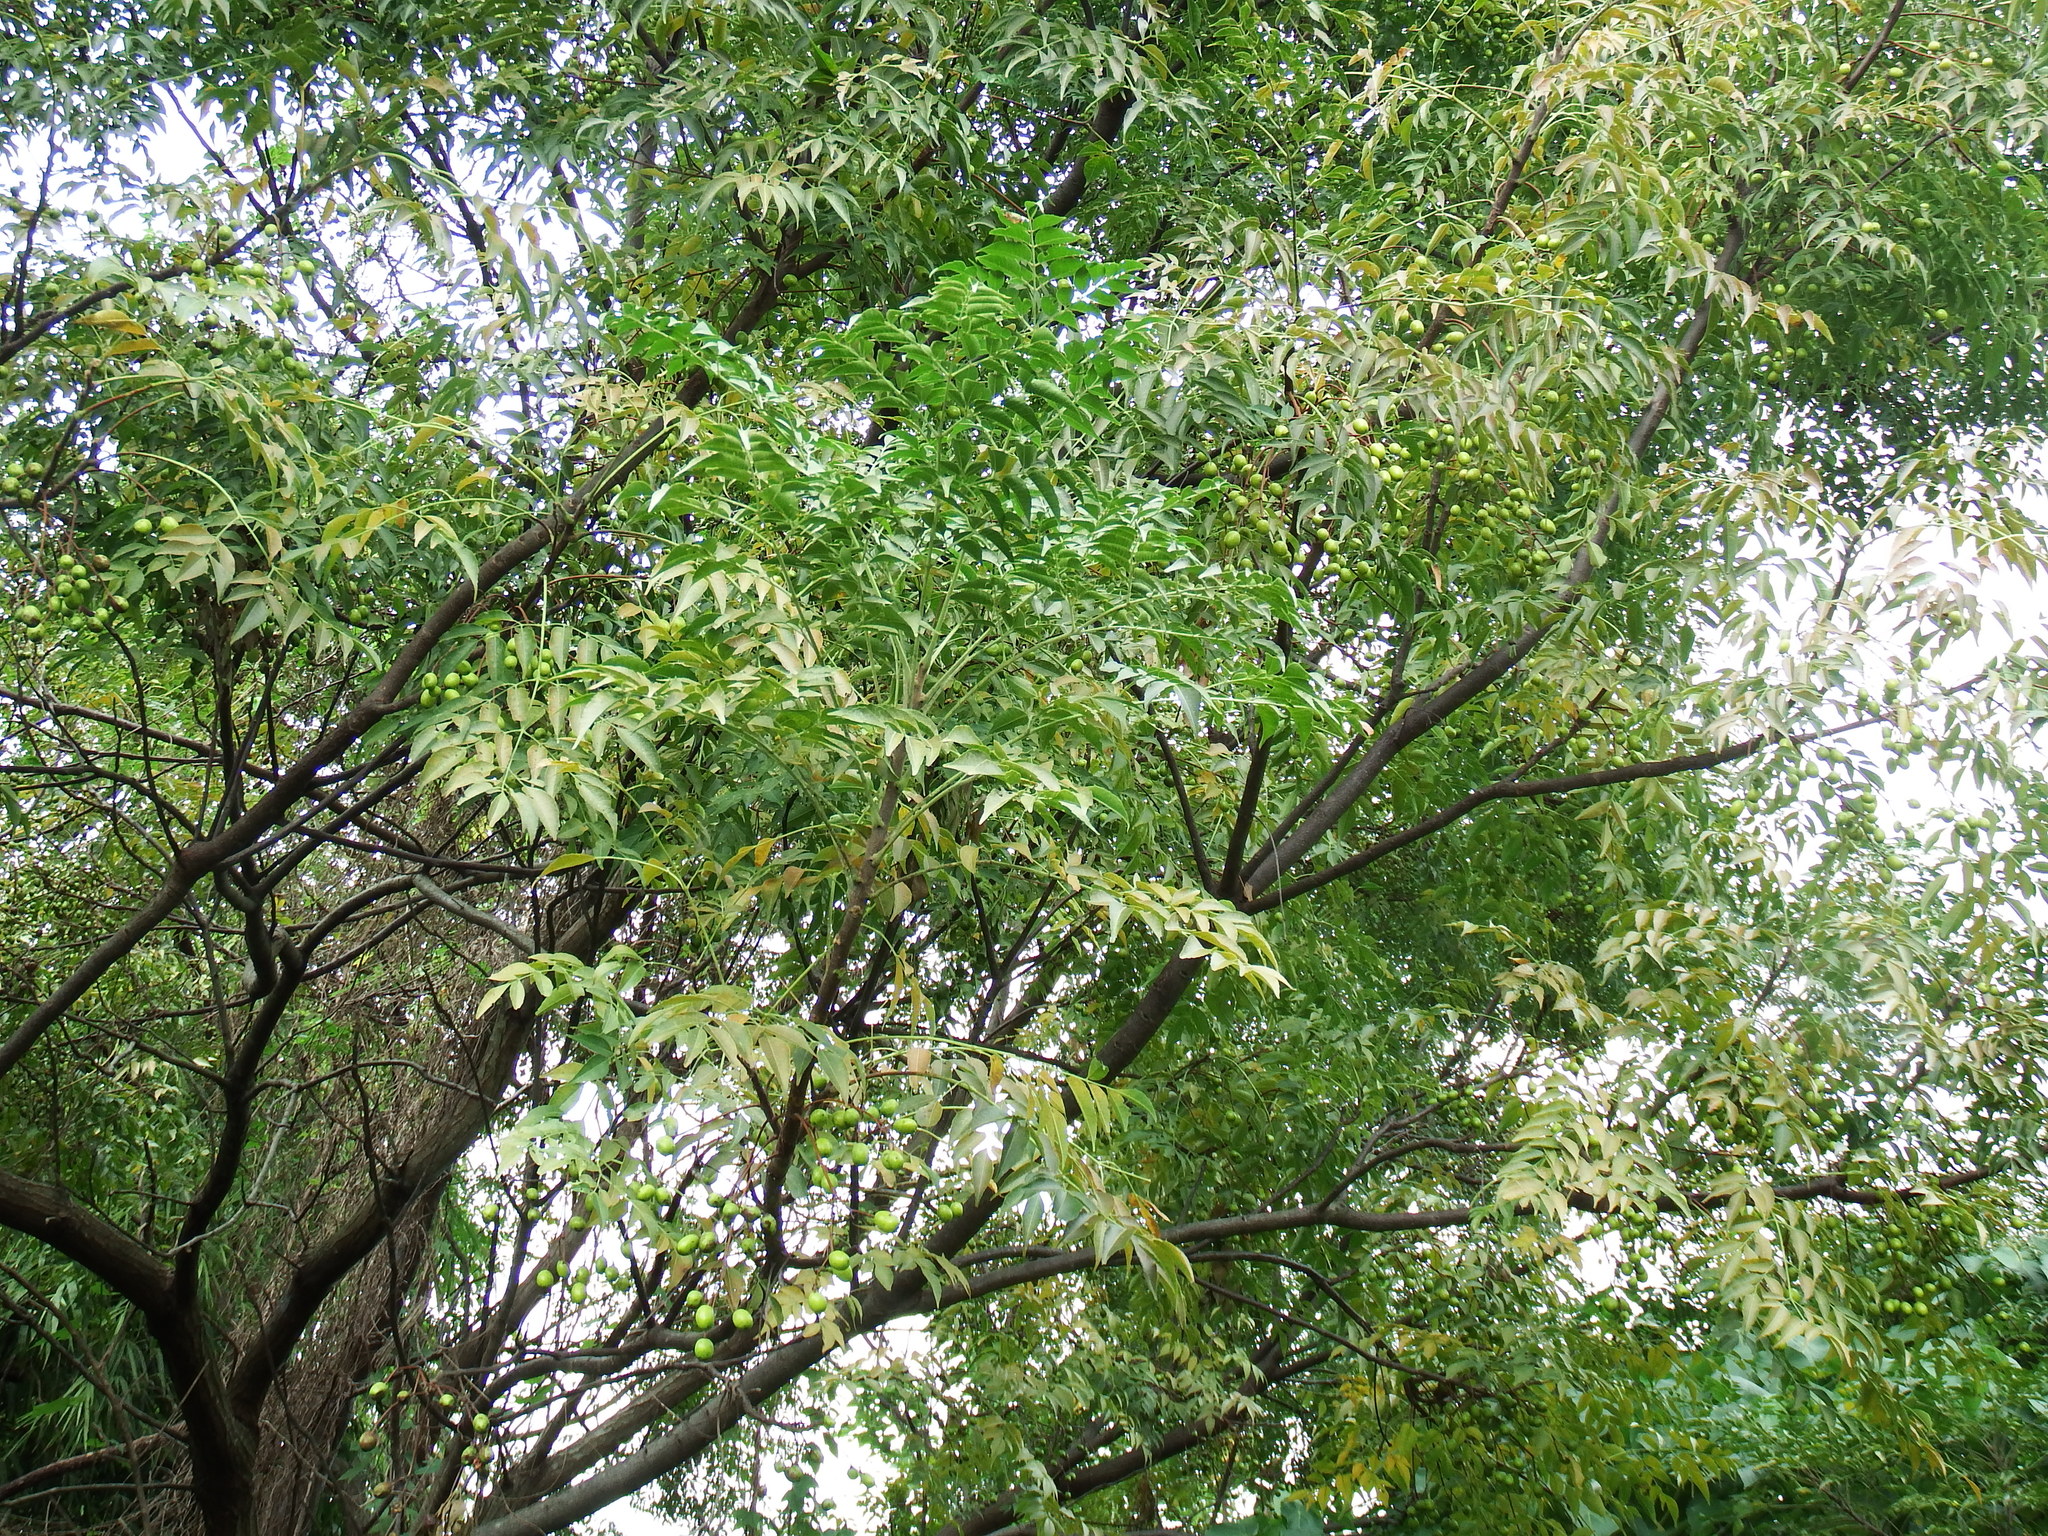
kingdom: Plantae
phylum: Tracheophyta
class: Magnoliopsida
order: Sapindales
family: Meliaceae
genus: Melia
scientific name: Melia azedarach
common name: Chinaberrytree
